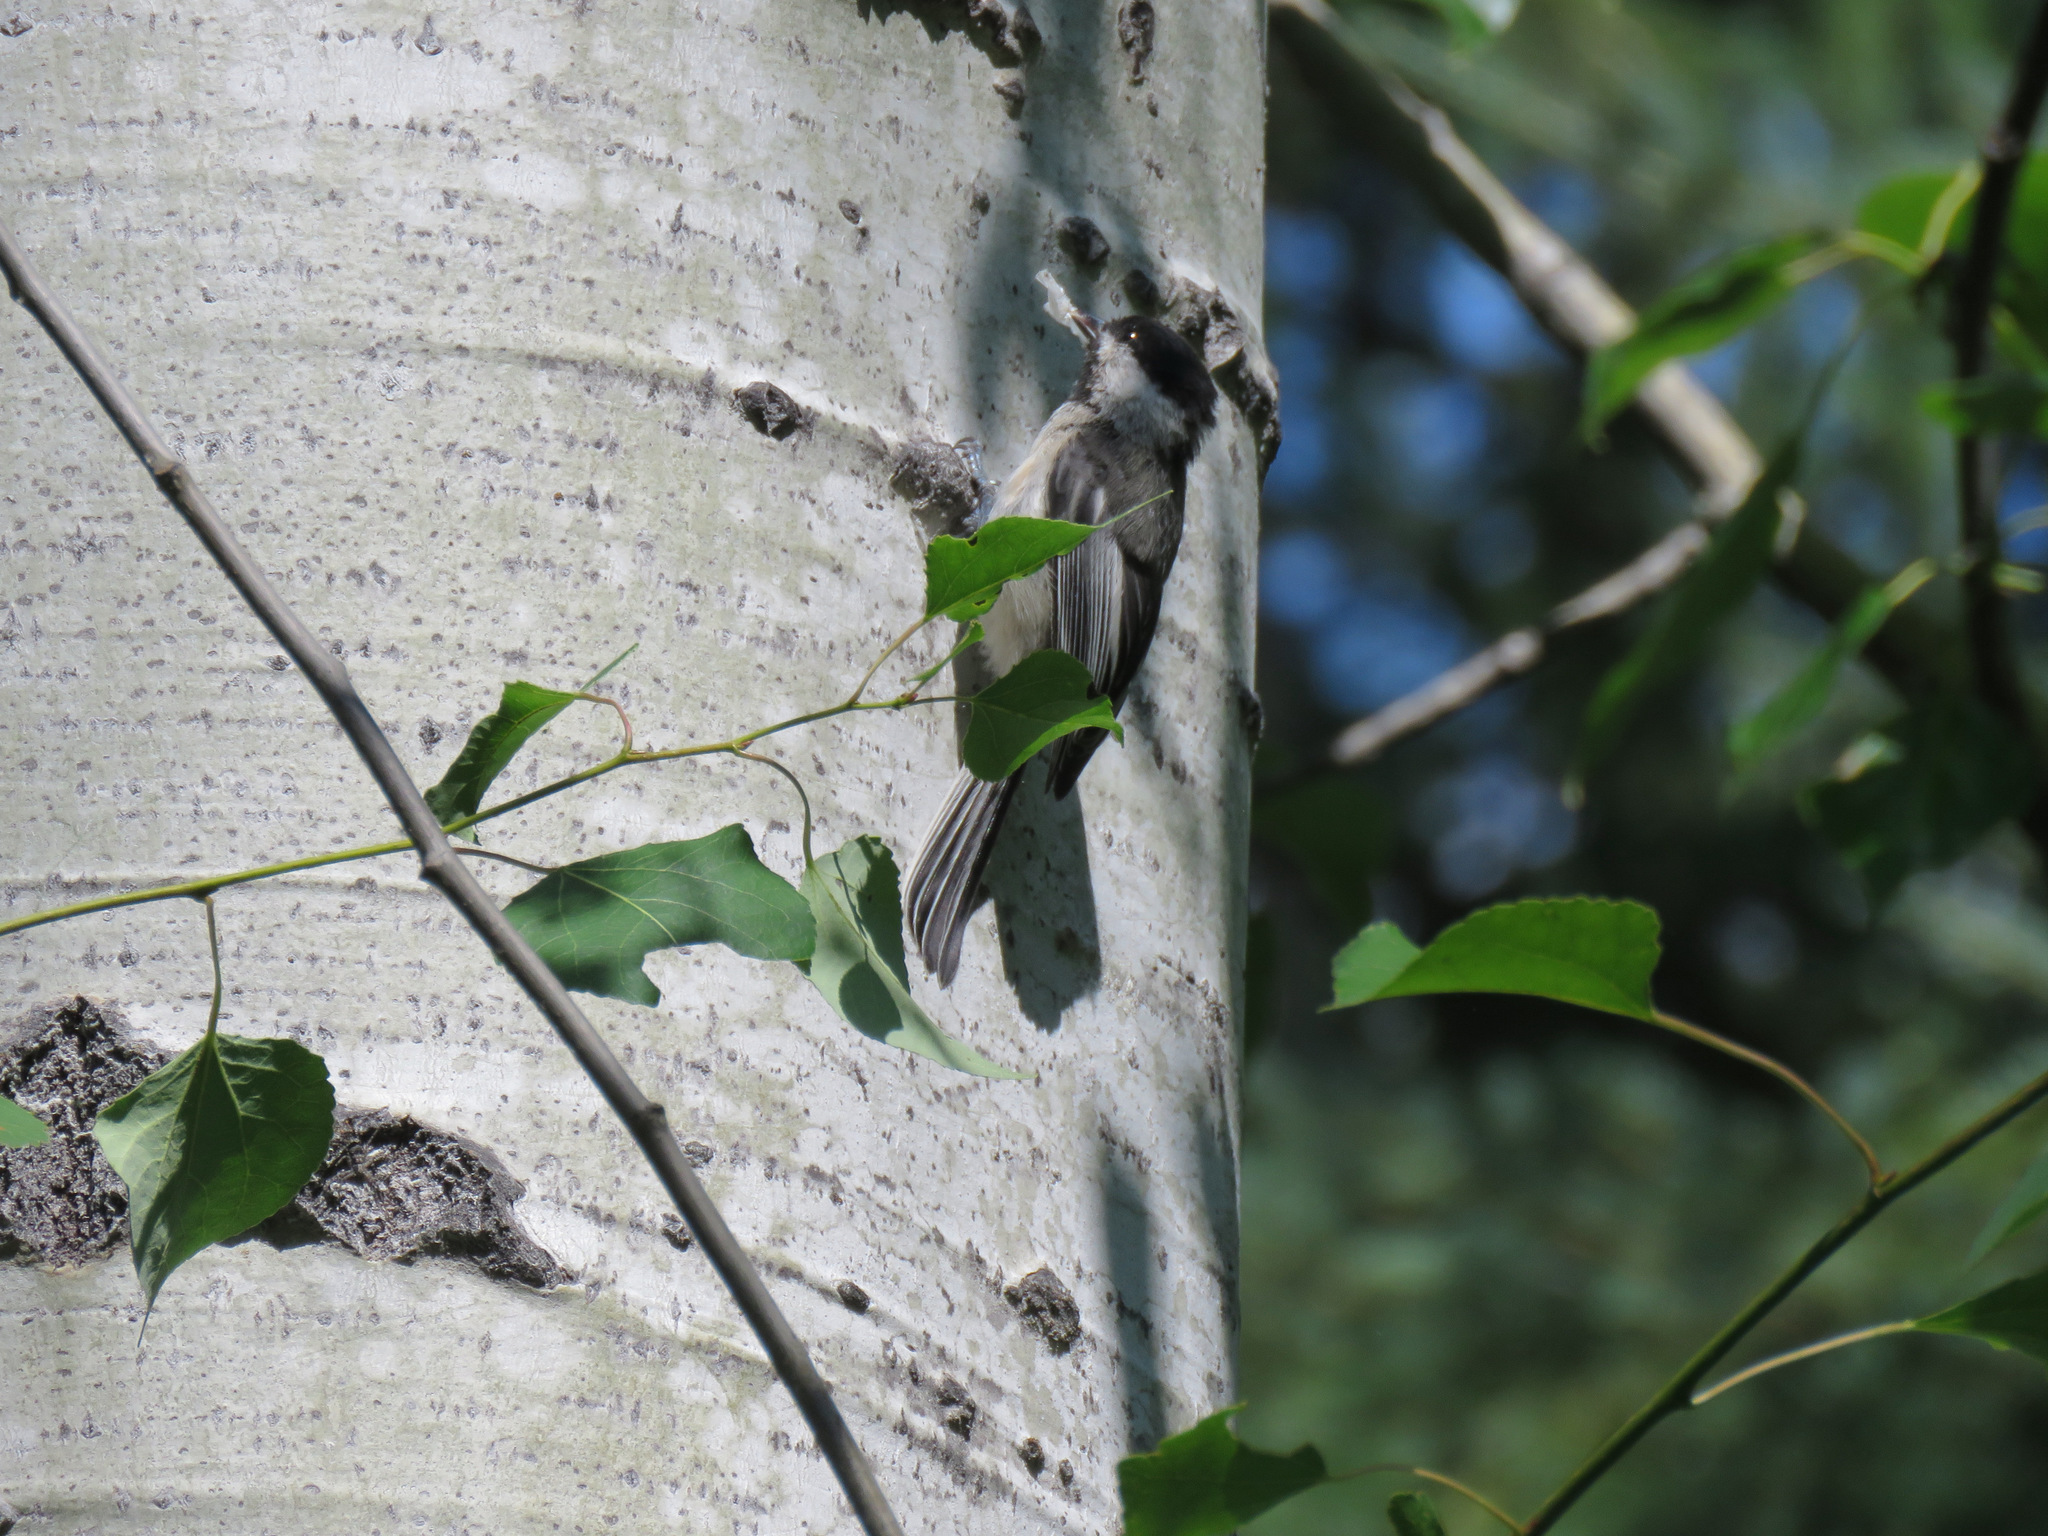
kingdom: Animalia
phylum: Chordata
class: Aves
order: Passeriformes
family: Paridae
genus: Poecile
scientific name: Poecile atricapillus
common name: Black-capped chickadee
